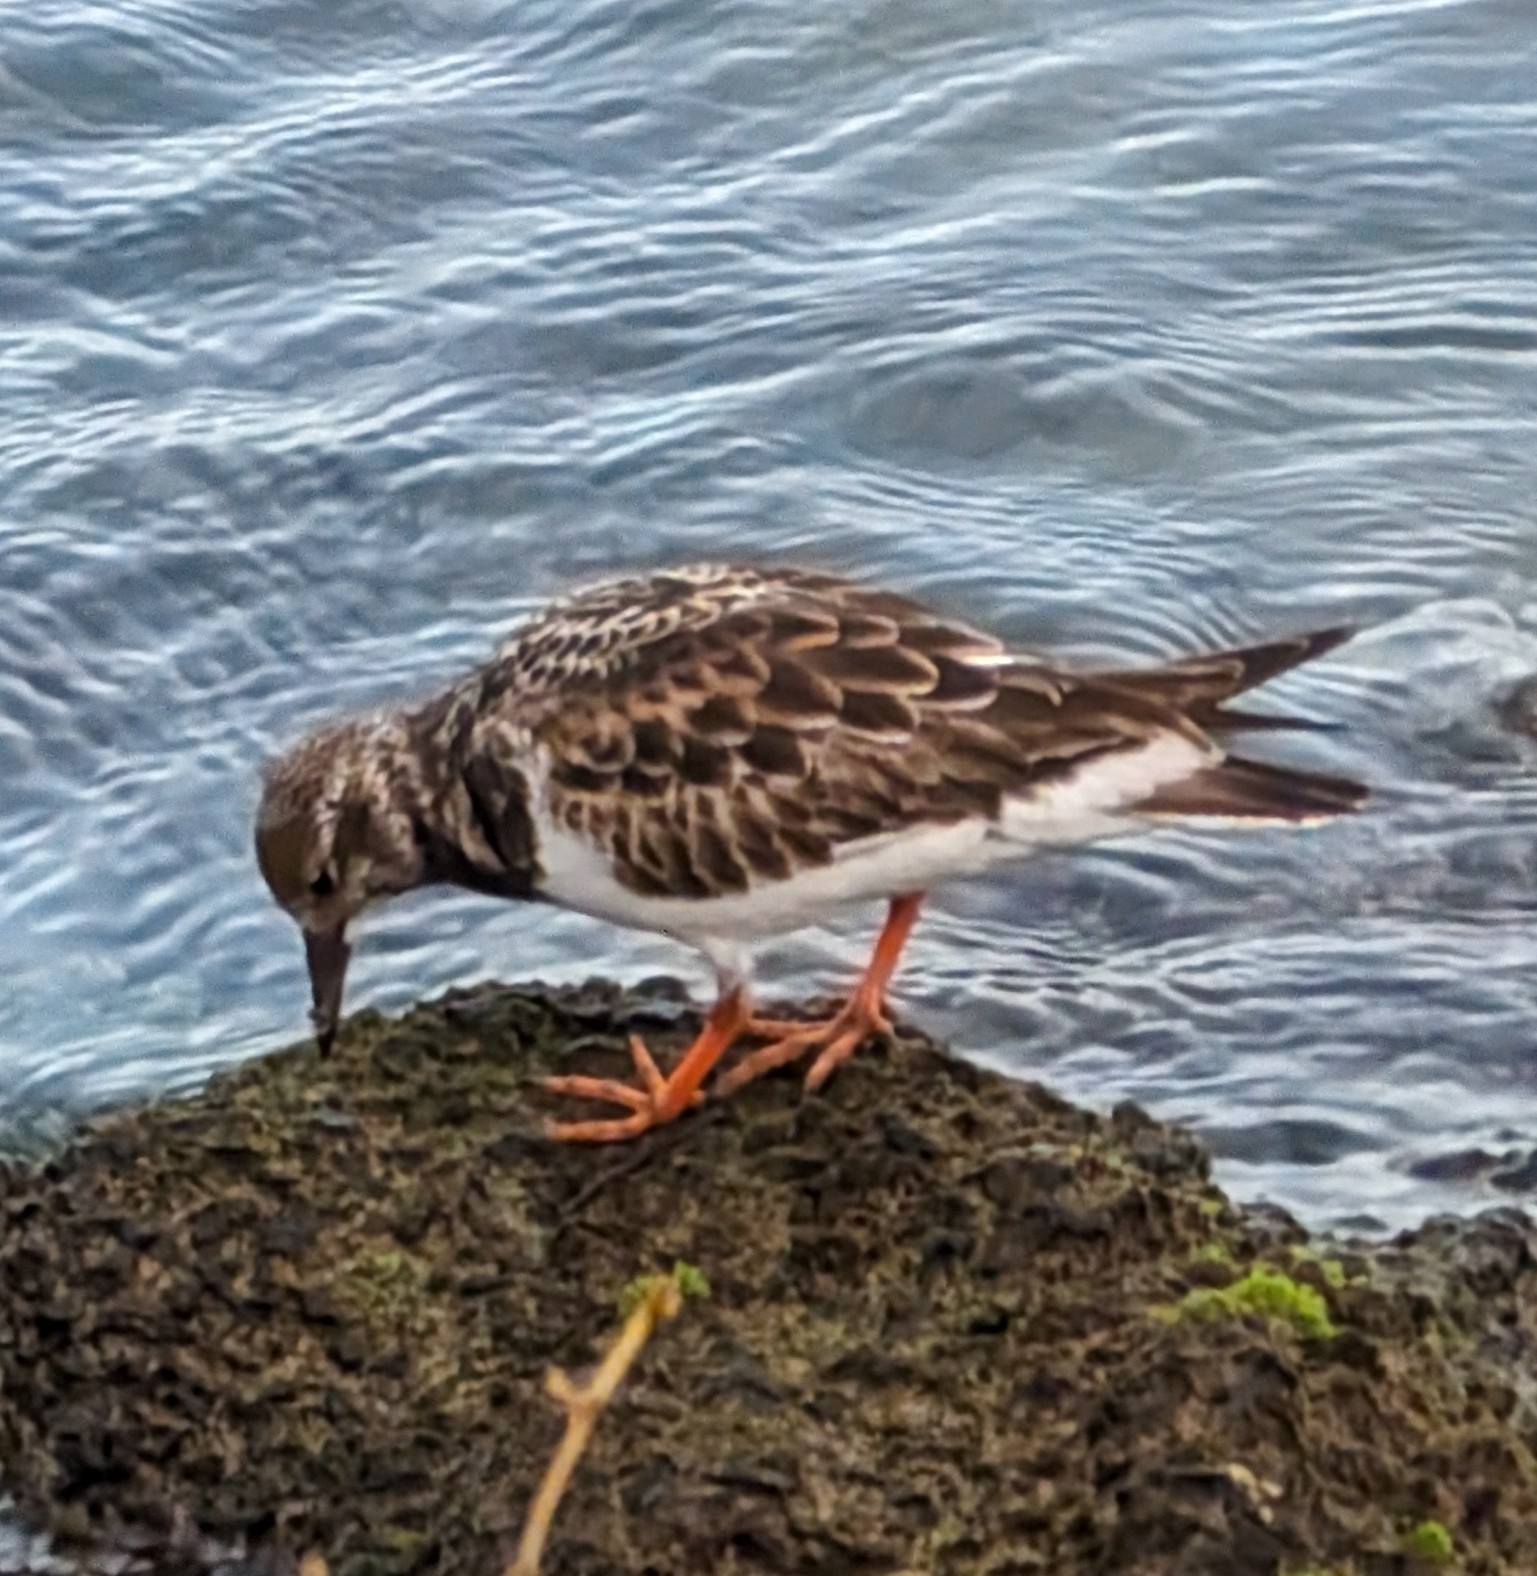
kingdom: Animalia
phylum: Chordata
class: Aves
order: Charadriiformes
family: Scolopacidae
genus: Arenaria
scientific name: Arenaria interpres
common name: Ruddy turnstone
